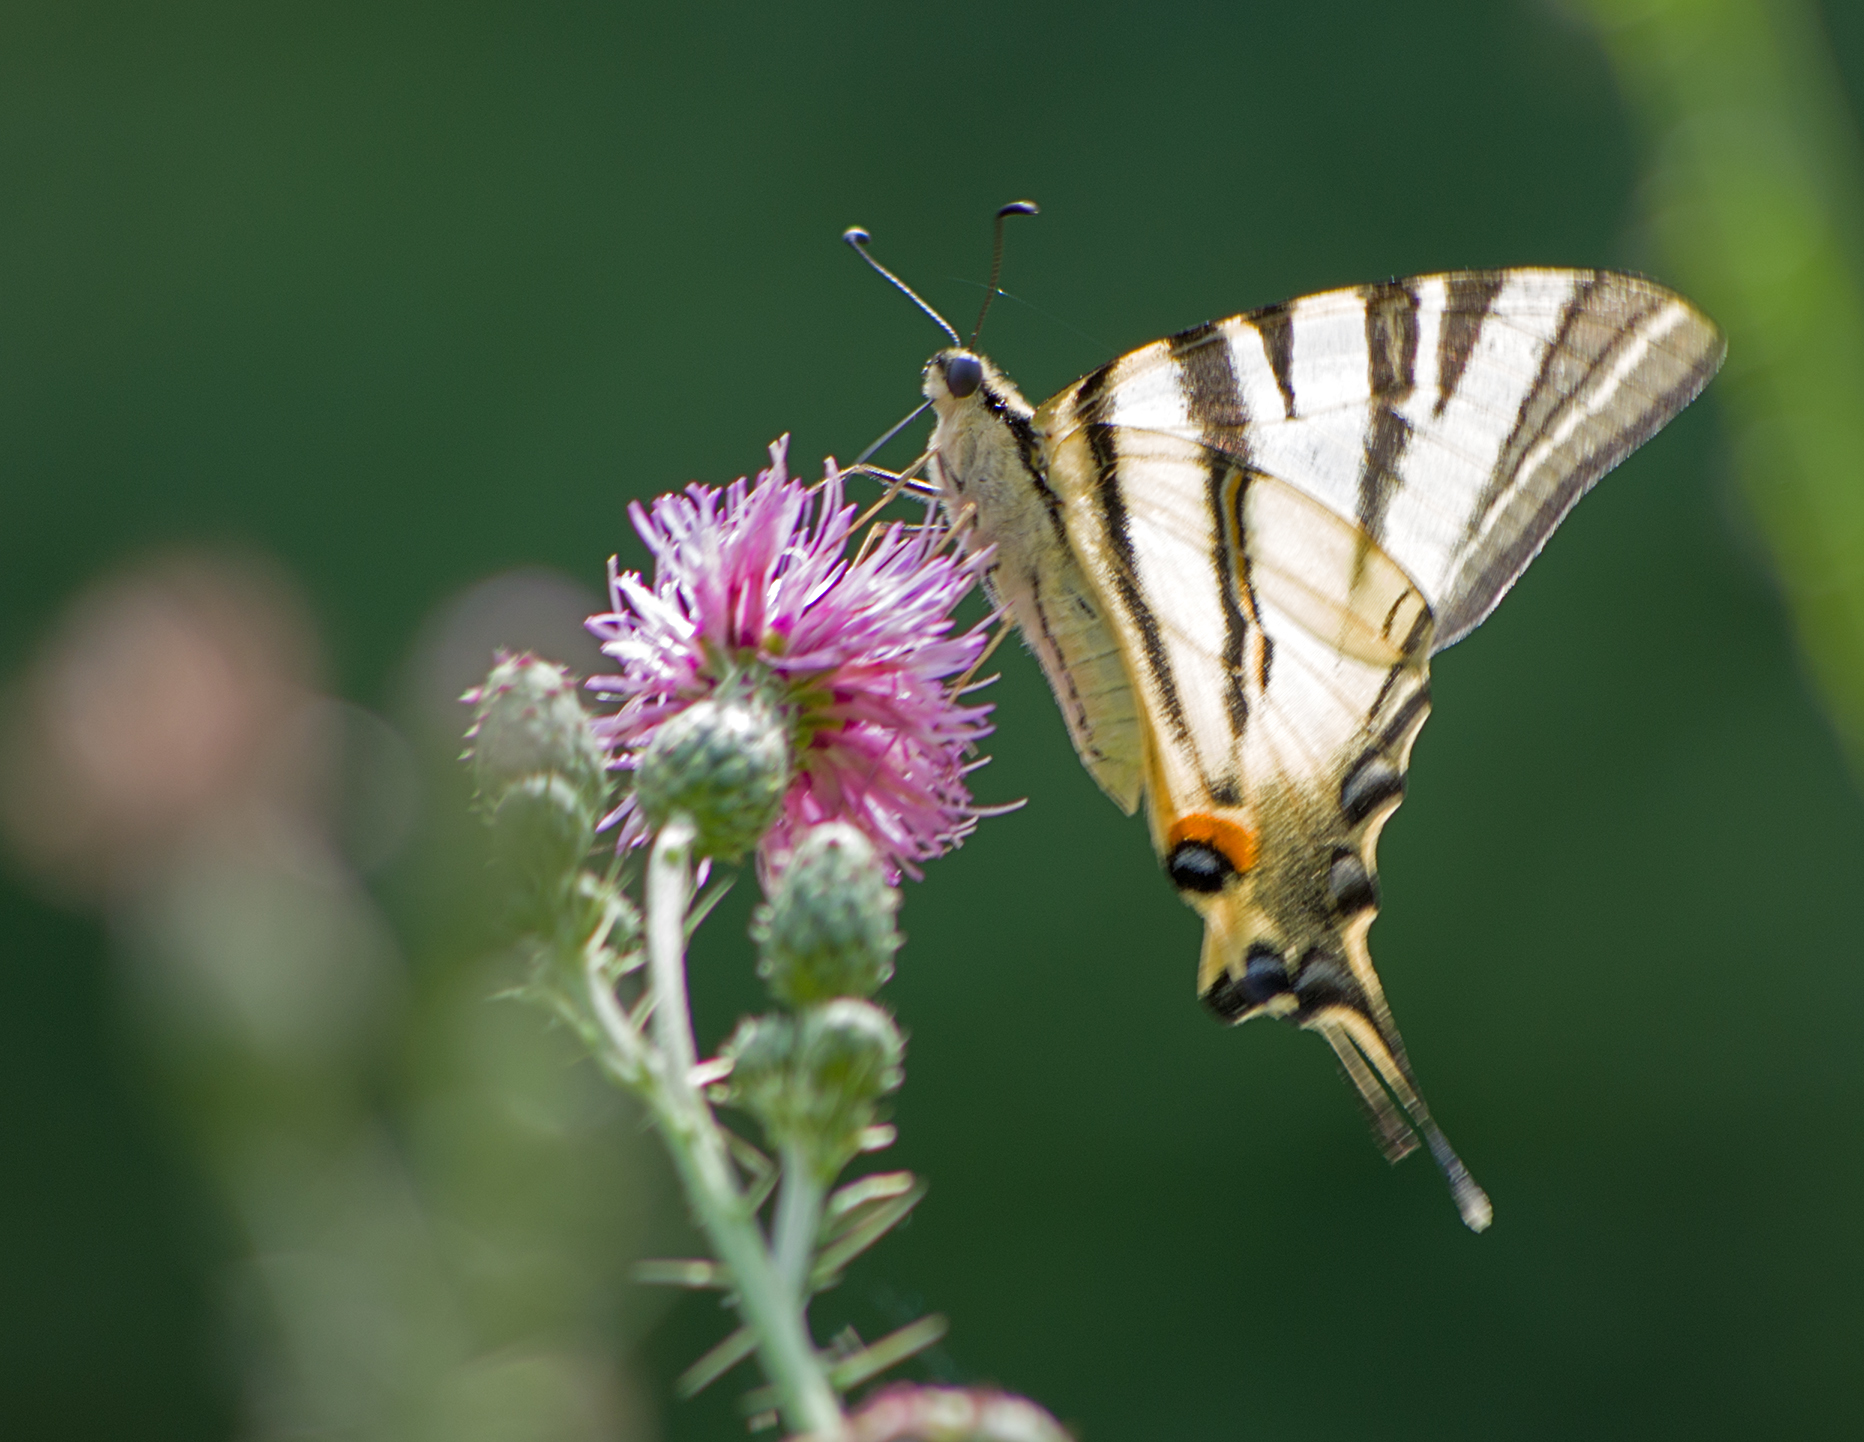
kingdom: Animalia
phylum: Arthropoda
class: Insecta
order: Lepidoptera
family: Papilionidae
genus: Iphiclides
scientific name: Iphiclides podalirius
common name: Scarce swallowtail
